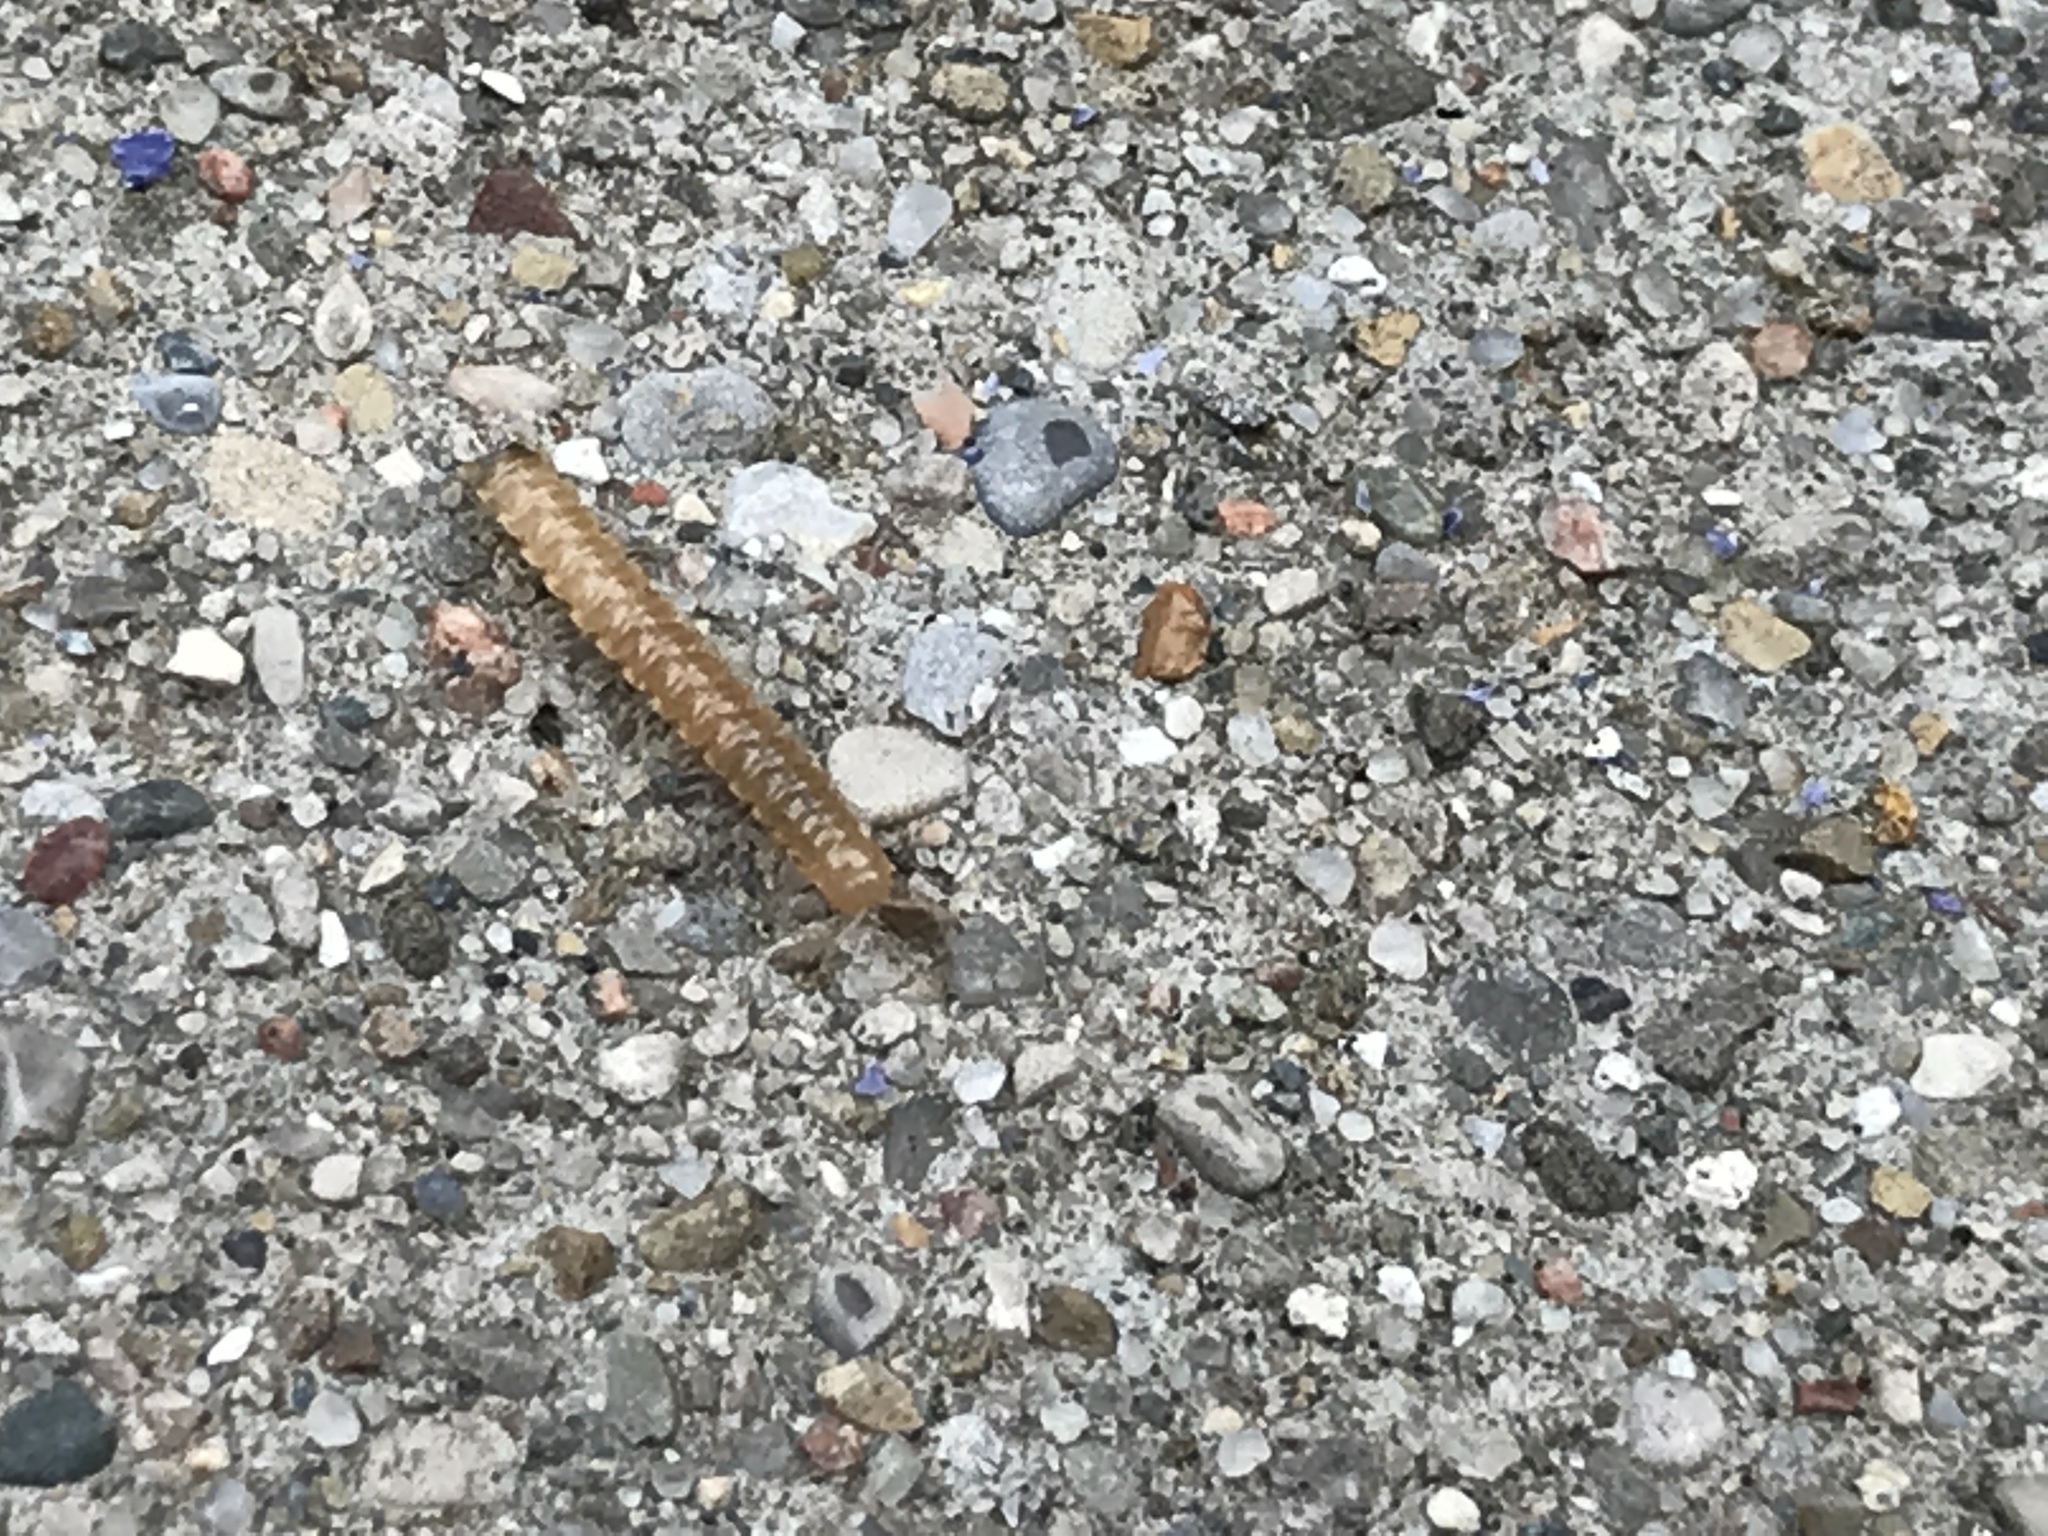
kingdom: Animalia
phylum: Arthropoda
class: Diplopoda
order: Polydesmida
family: Paradoxosomatidae
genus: Oxidus
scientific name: Oxidus gracilis
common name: Greenhouse millipede
